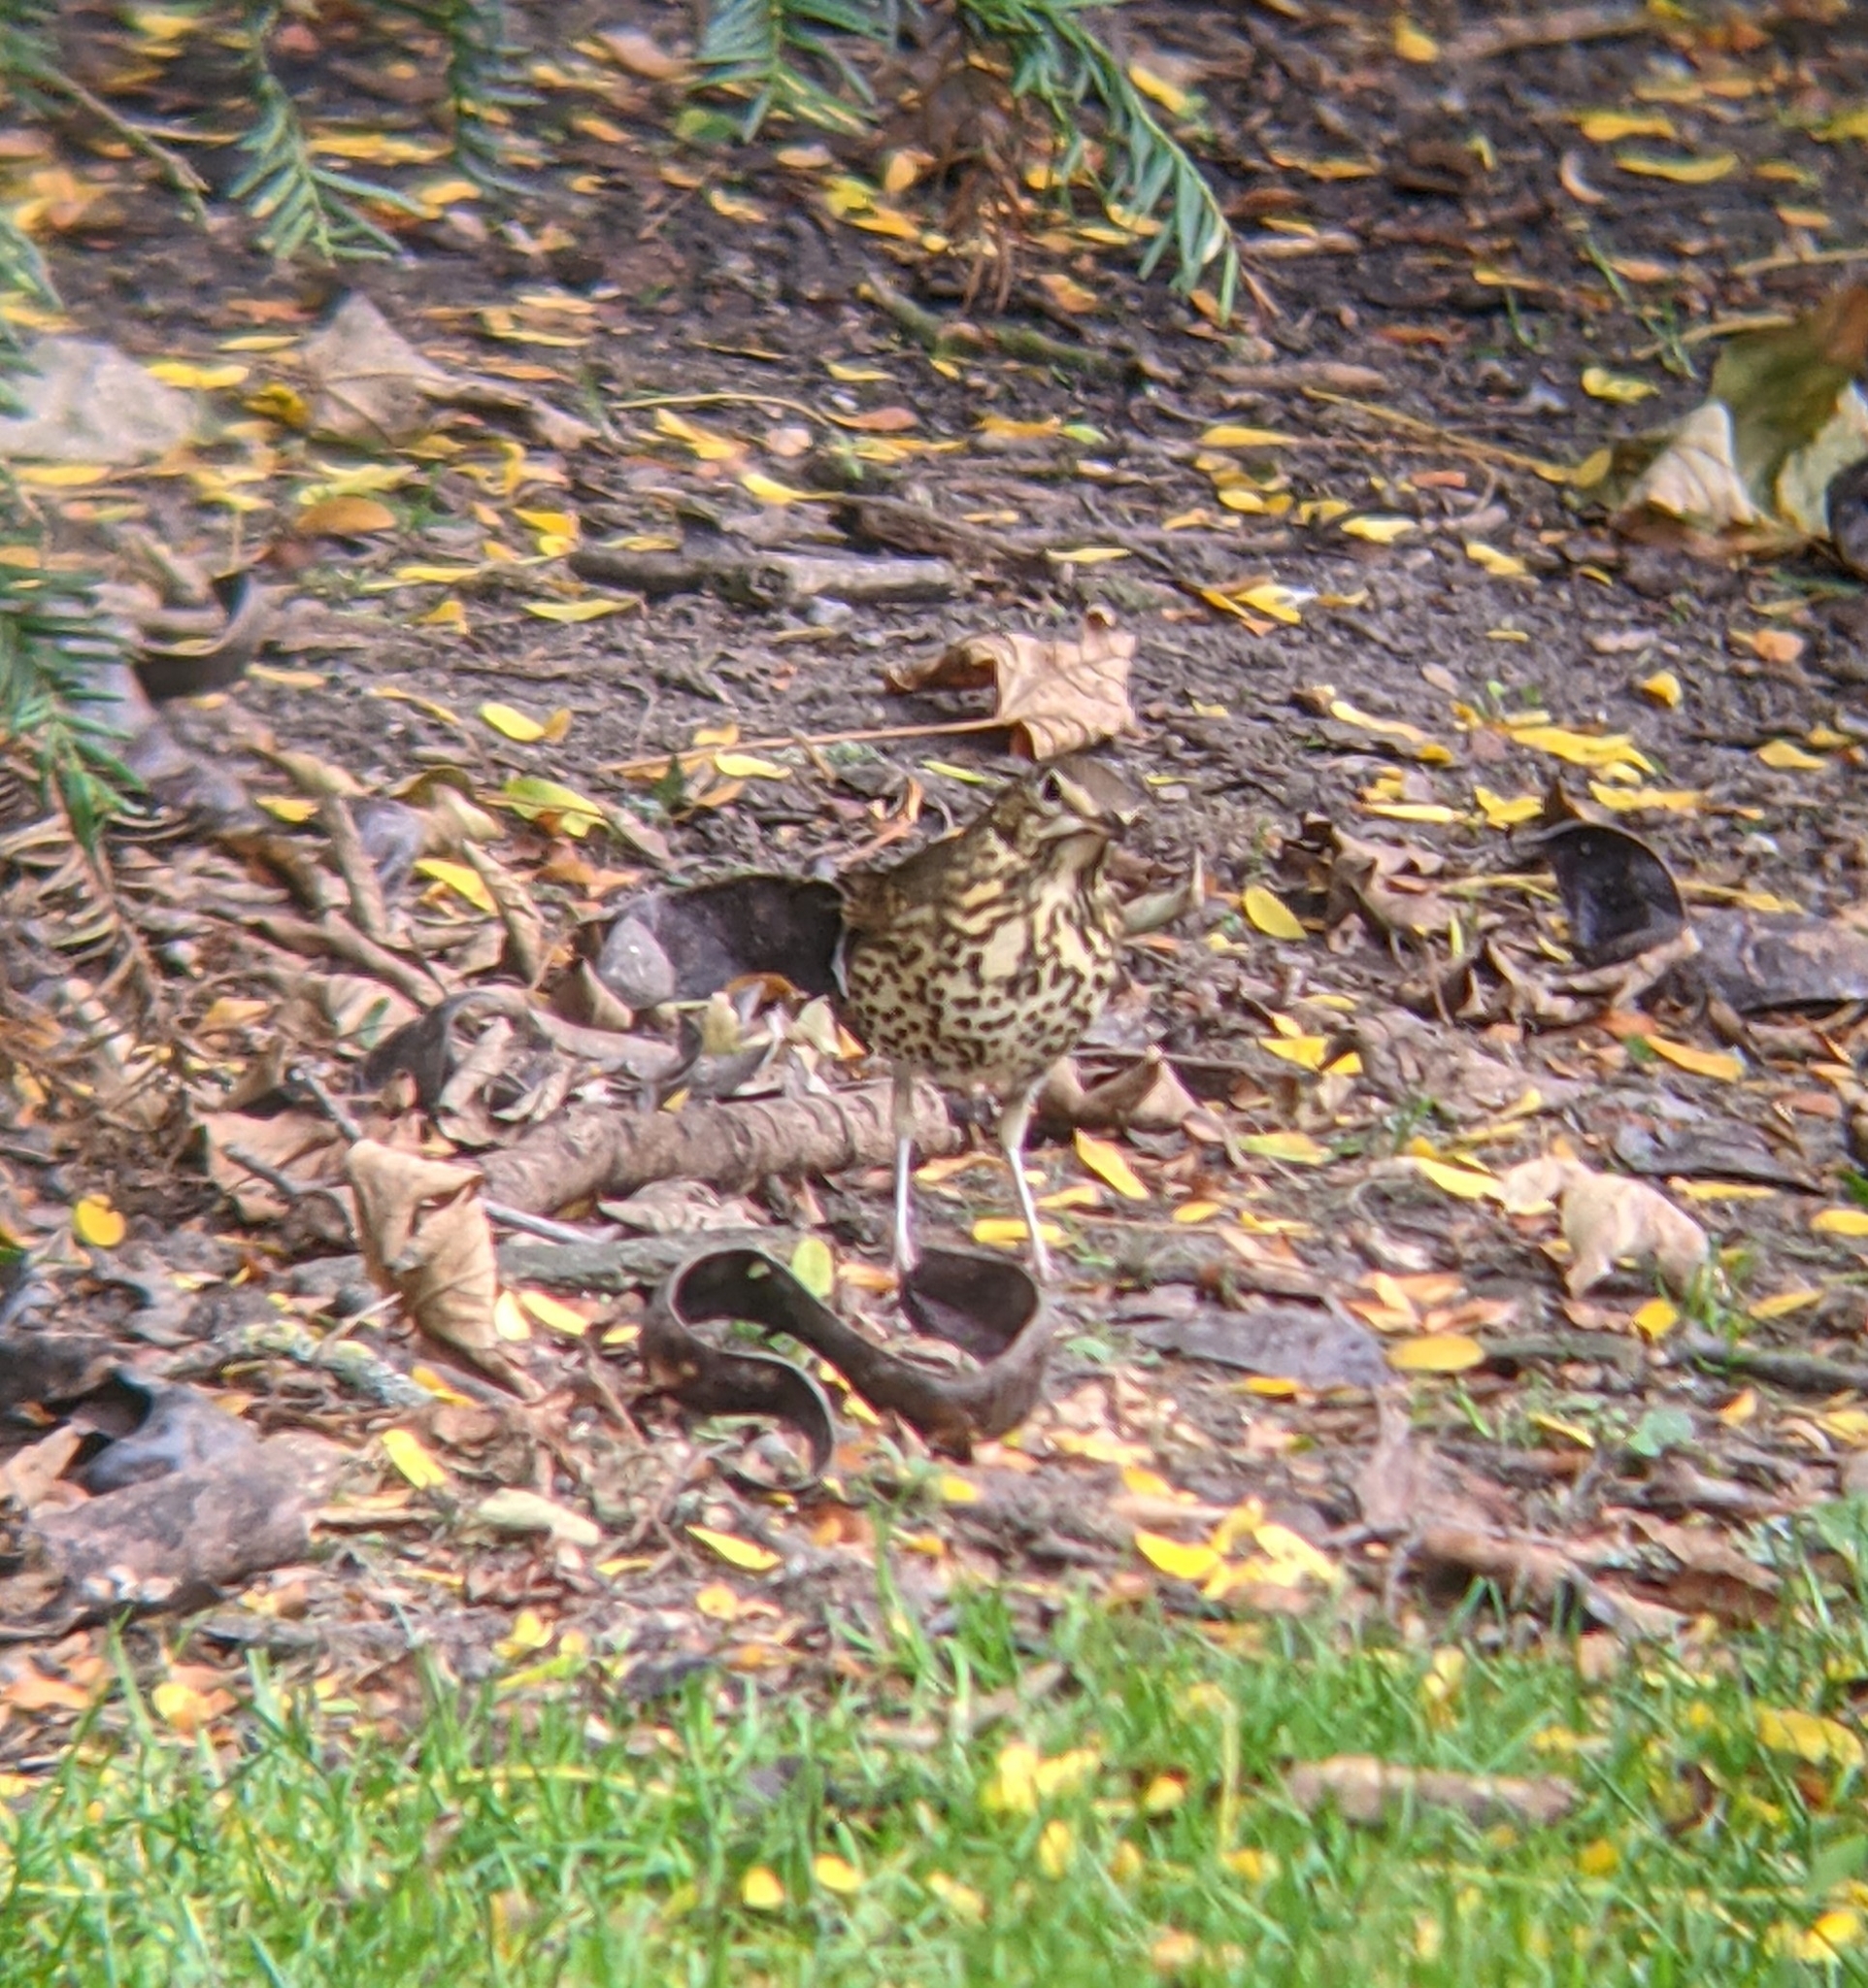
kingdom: Animalia
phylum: Chordata
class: Aves
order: Passeriformes
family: Turdidae
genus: Turdus
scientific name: Turdus philomelos
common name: Song thrush
